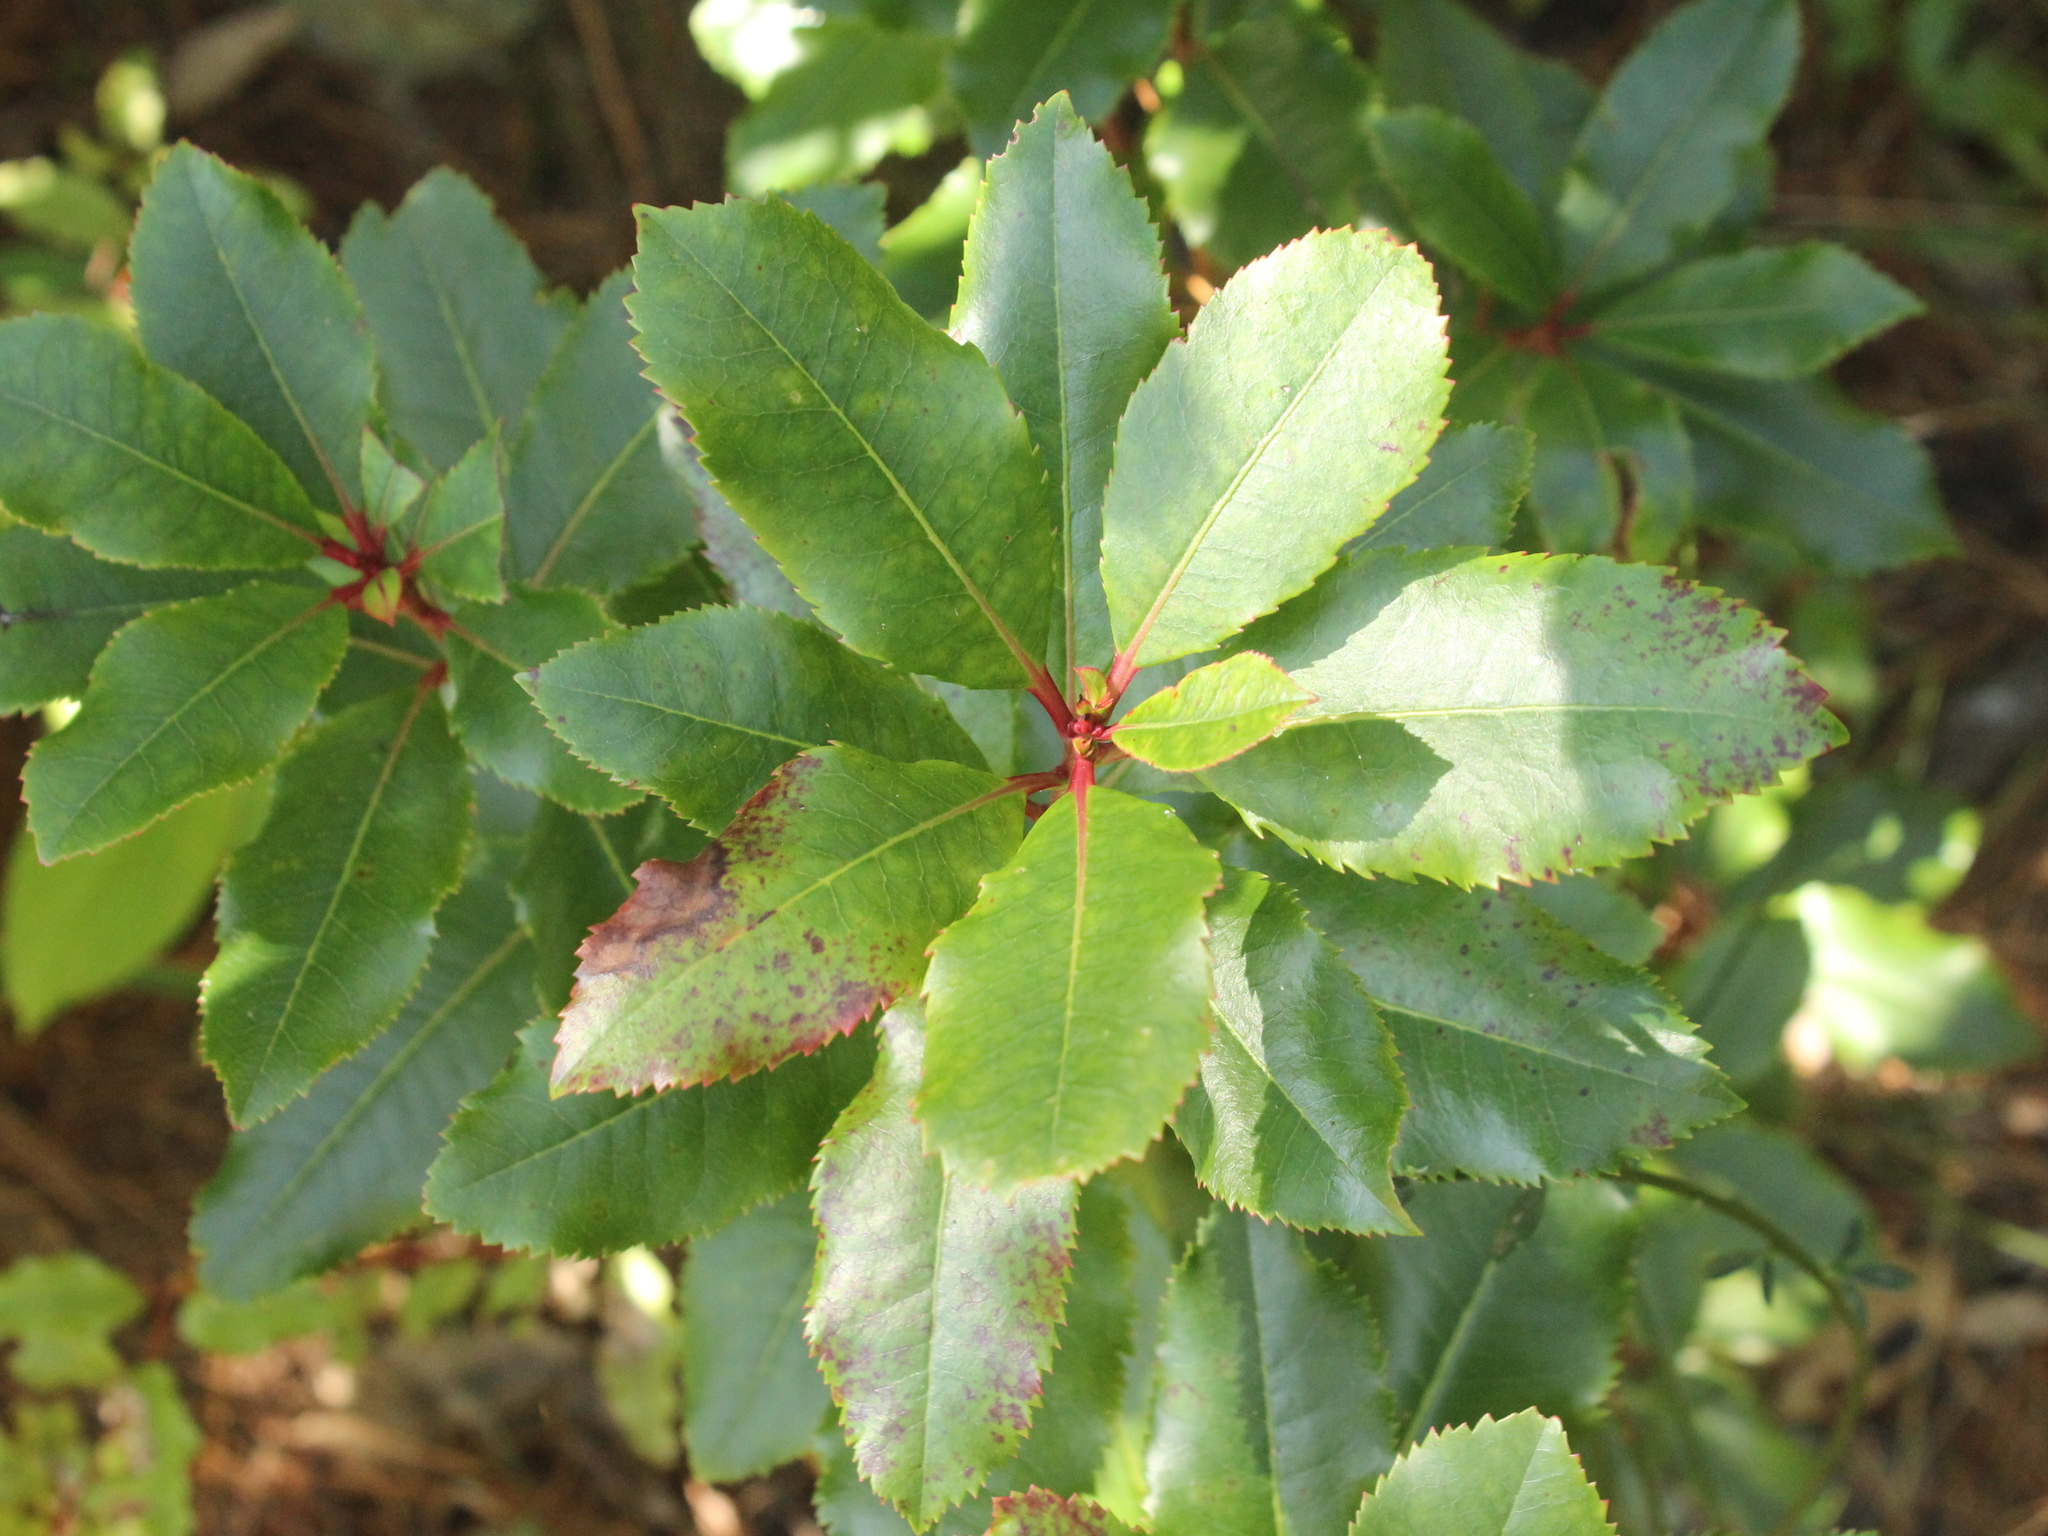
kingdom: Plantae
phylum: Tracheophyta
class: Magnoliopsida
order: Ericales
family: Ericaceae
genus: Arbutus
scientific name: Arbutus unedo
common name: Strawberry-tree
